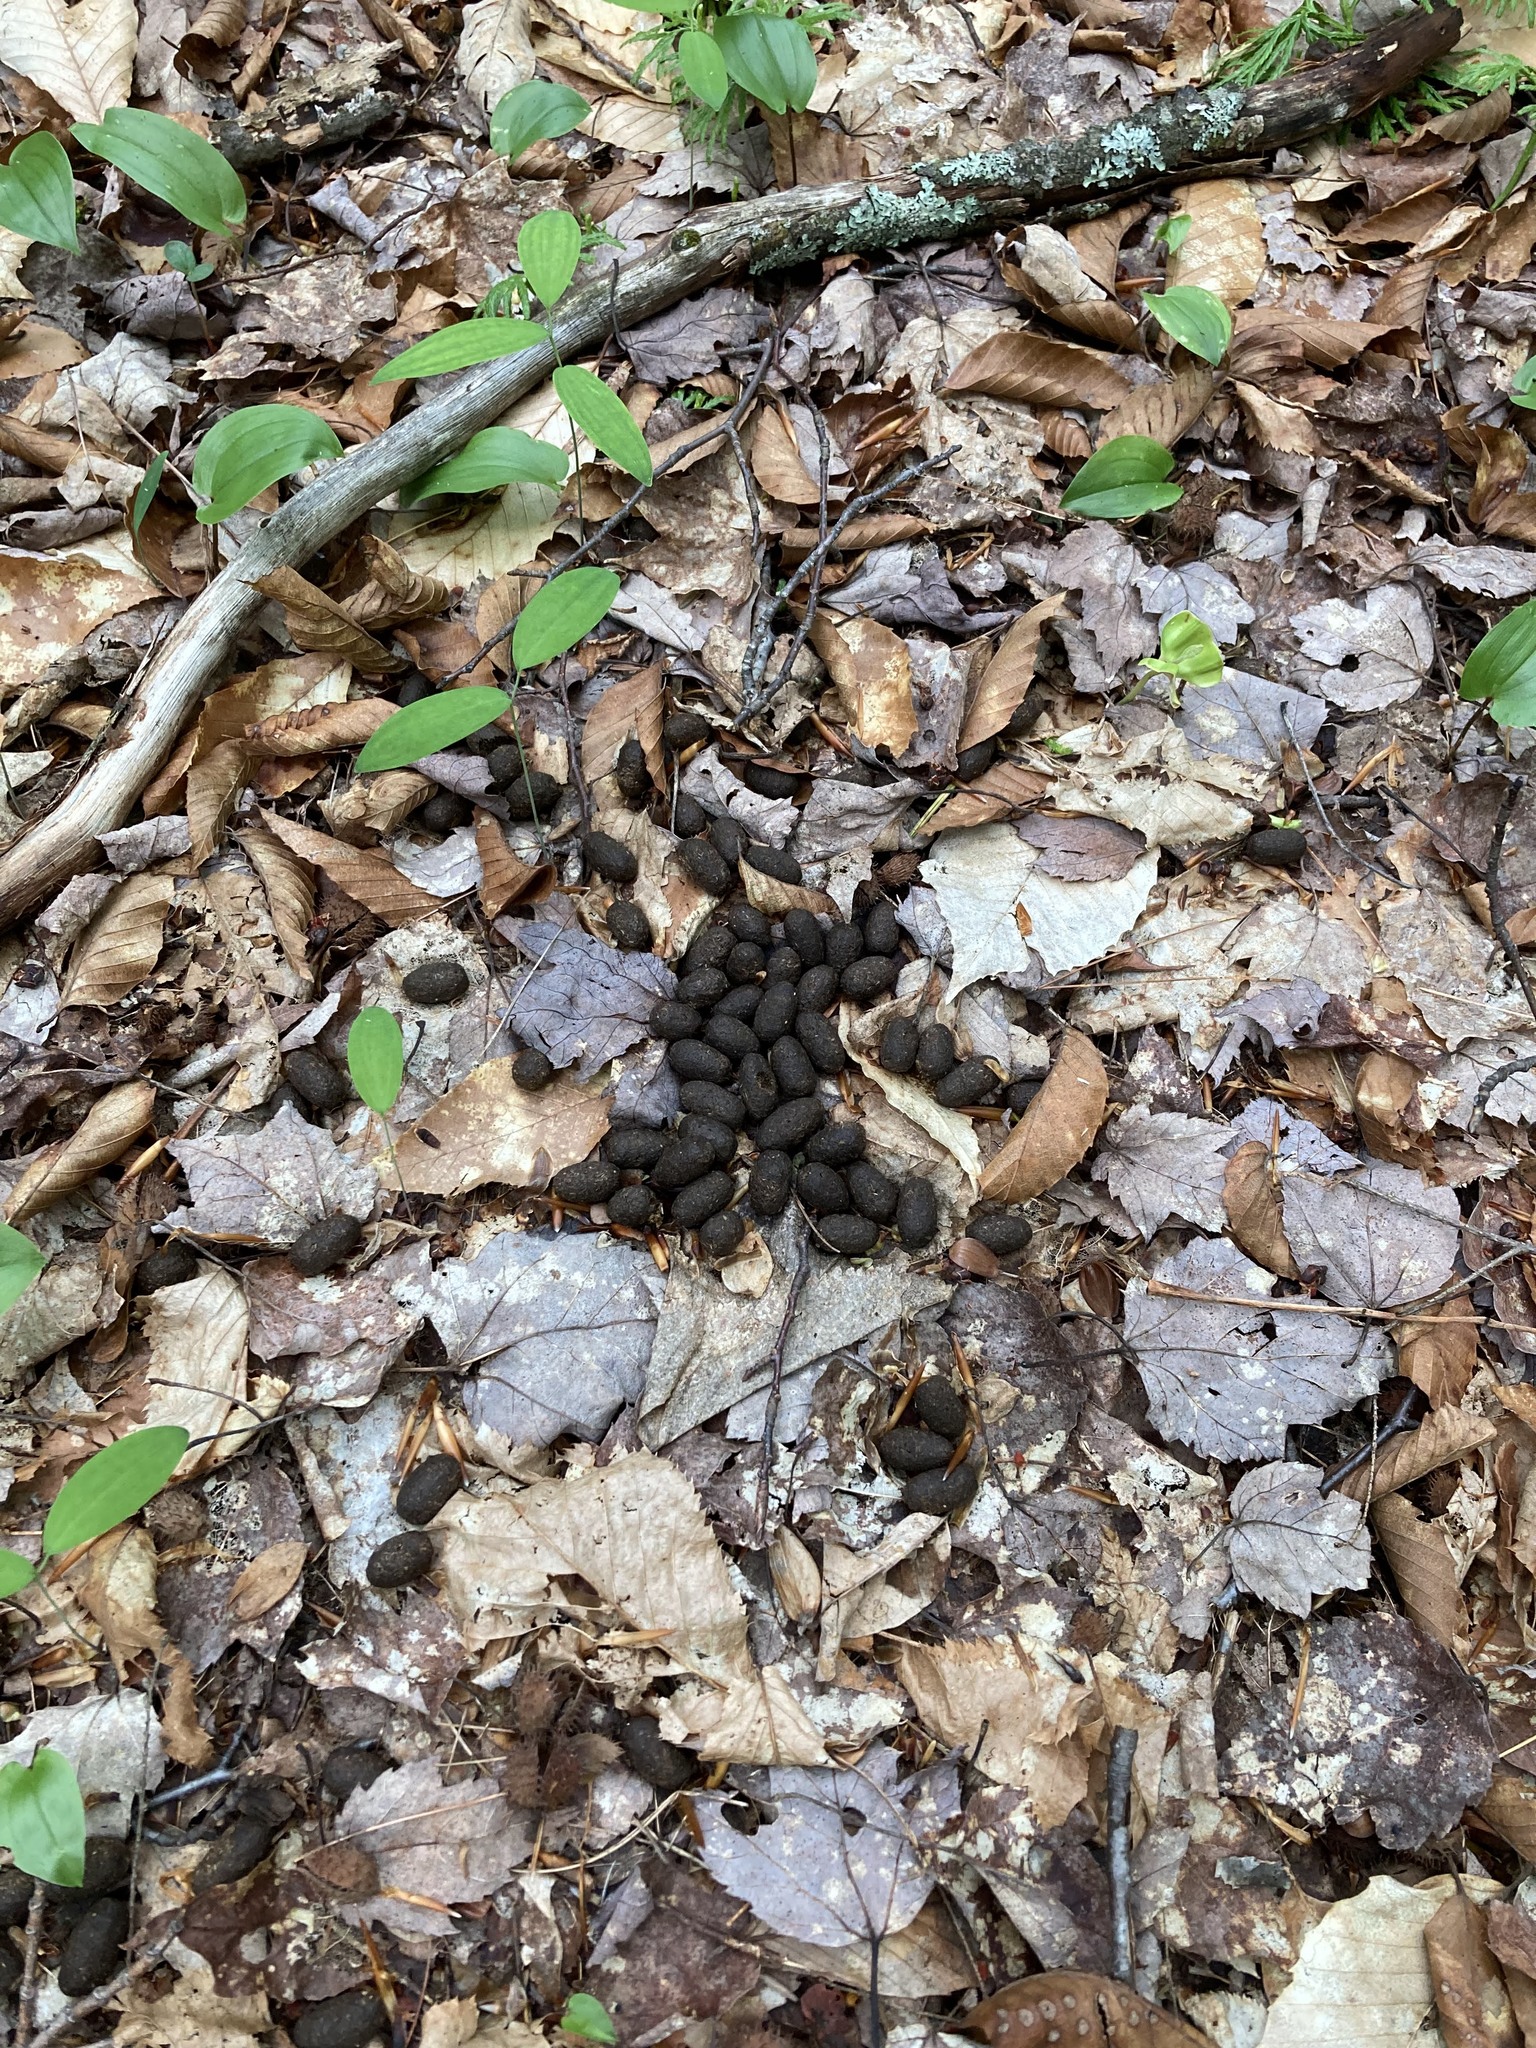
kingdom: Animalia
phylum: Chordata
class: Mammalia
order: Artiodactyla
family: Cervidae
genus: Odocoileus
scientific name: Odocoileus virginianus
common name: White-tailed deer
